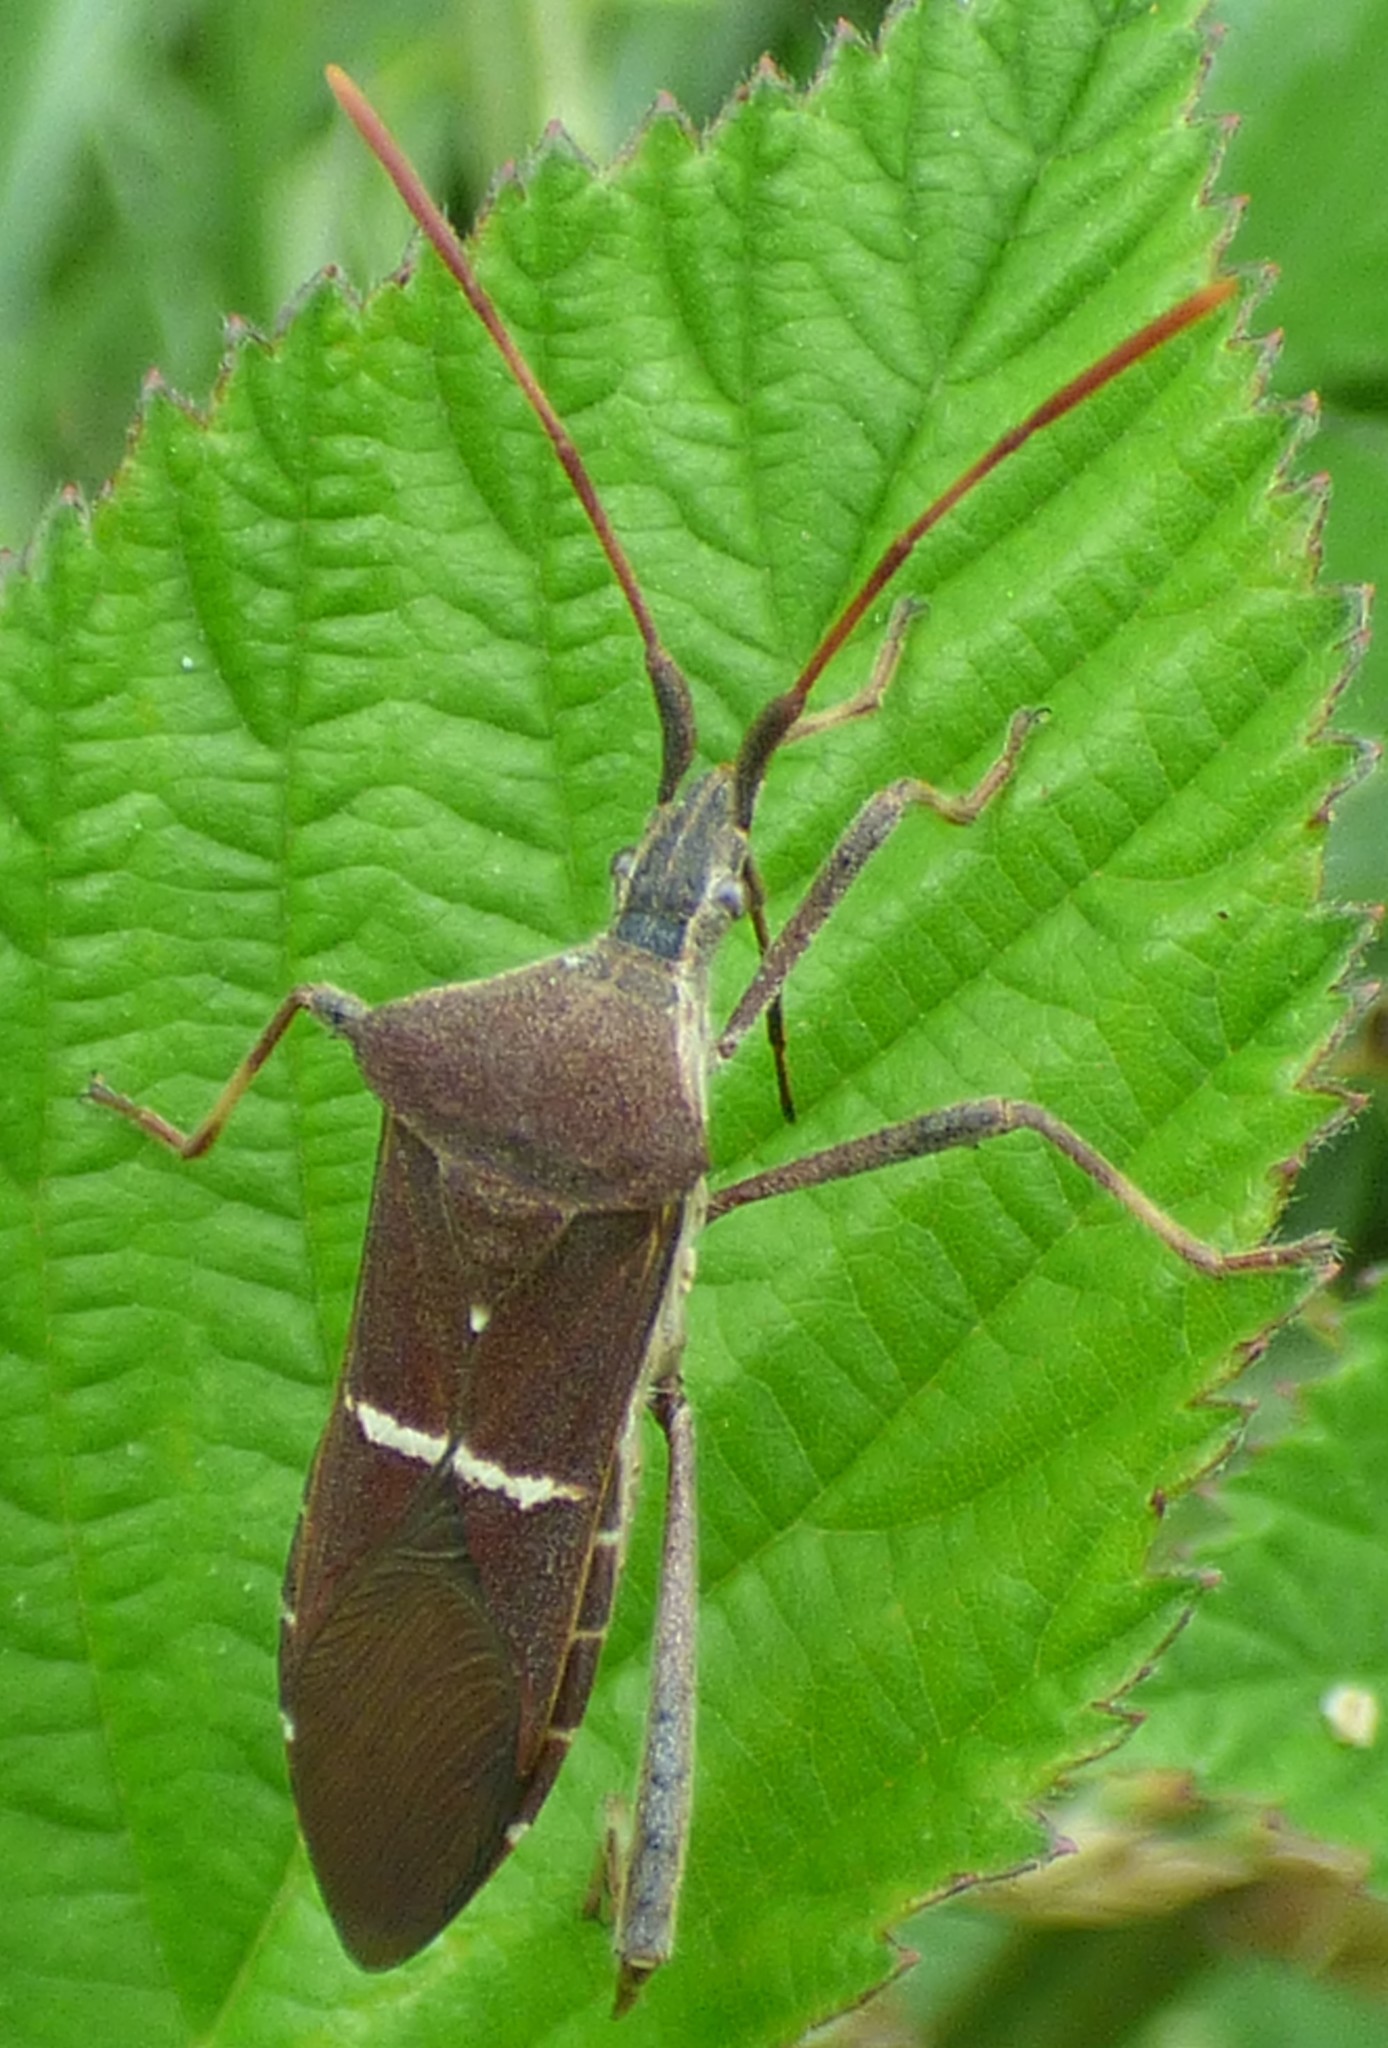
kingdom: Animalia
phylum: Arthropoda
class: Insecta
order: Hemiptera
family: Coreidae
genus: Leptoglossus
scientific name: Leptoglossus phyllopus
